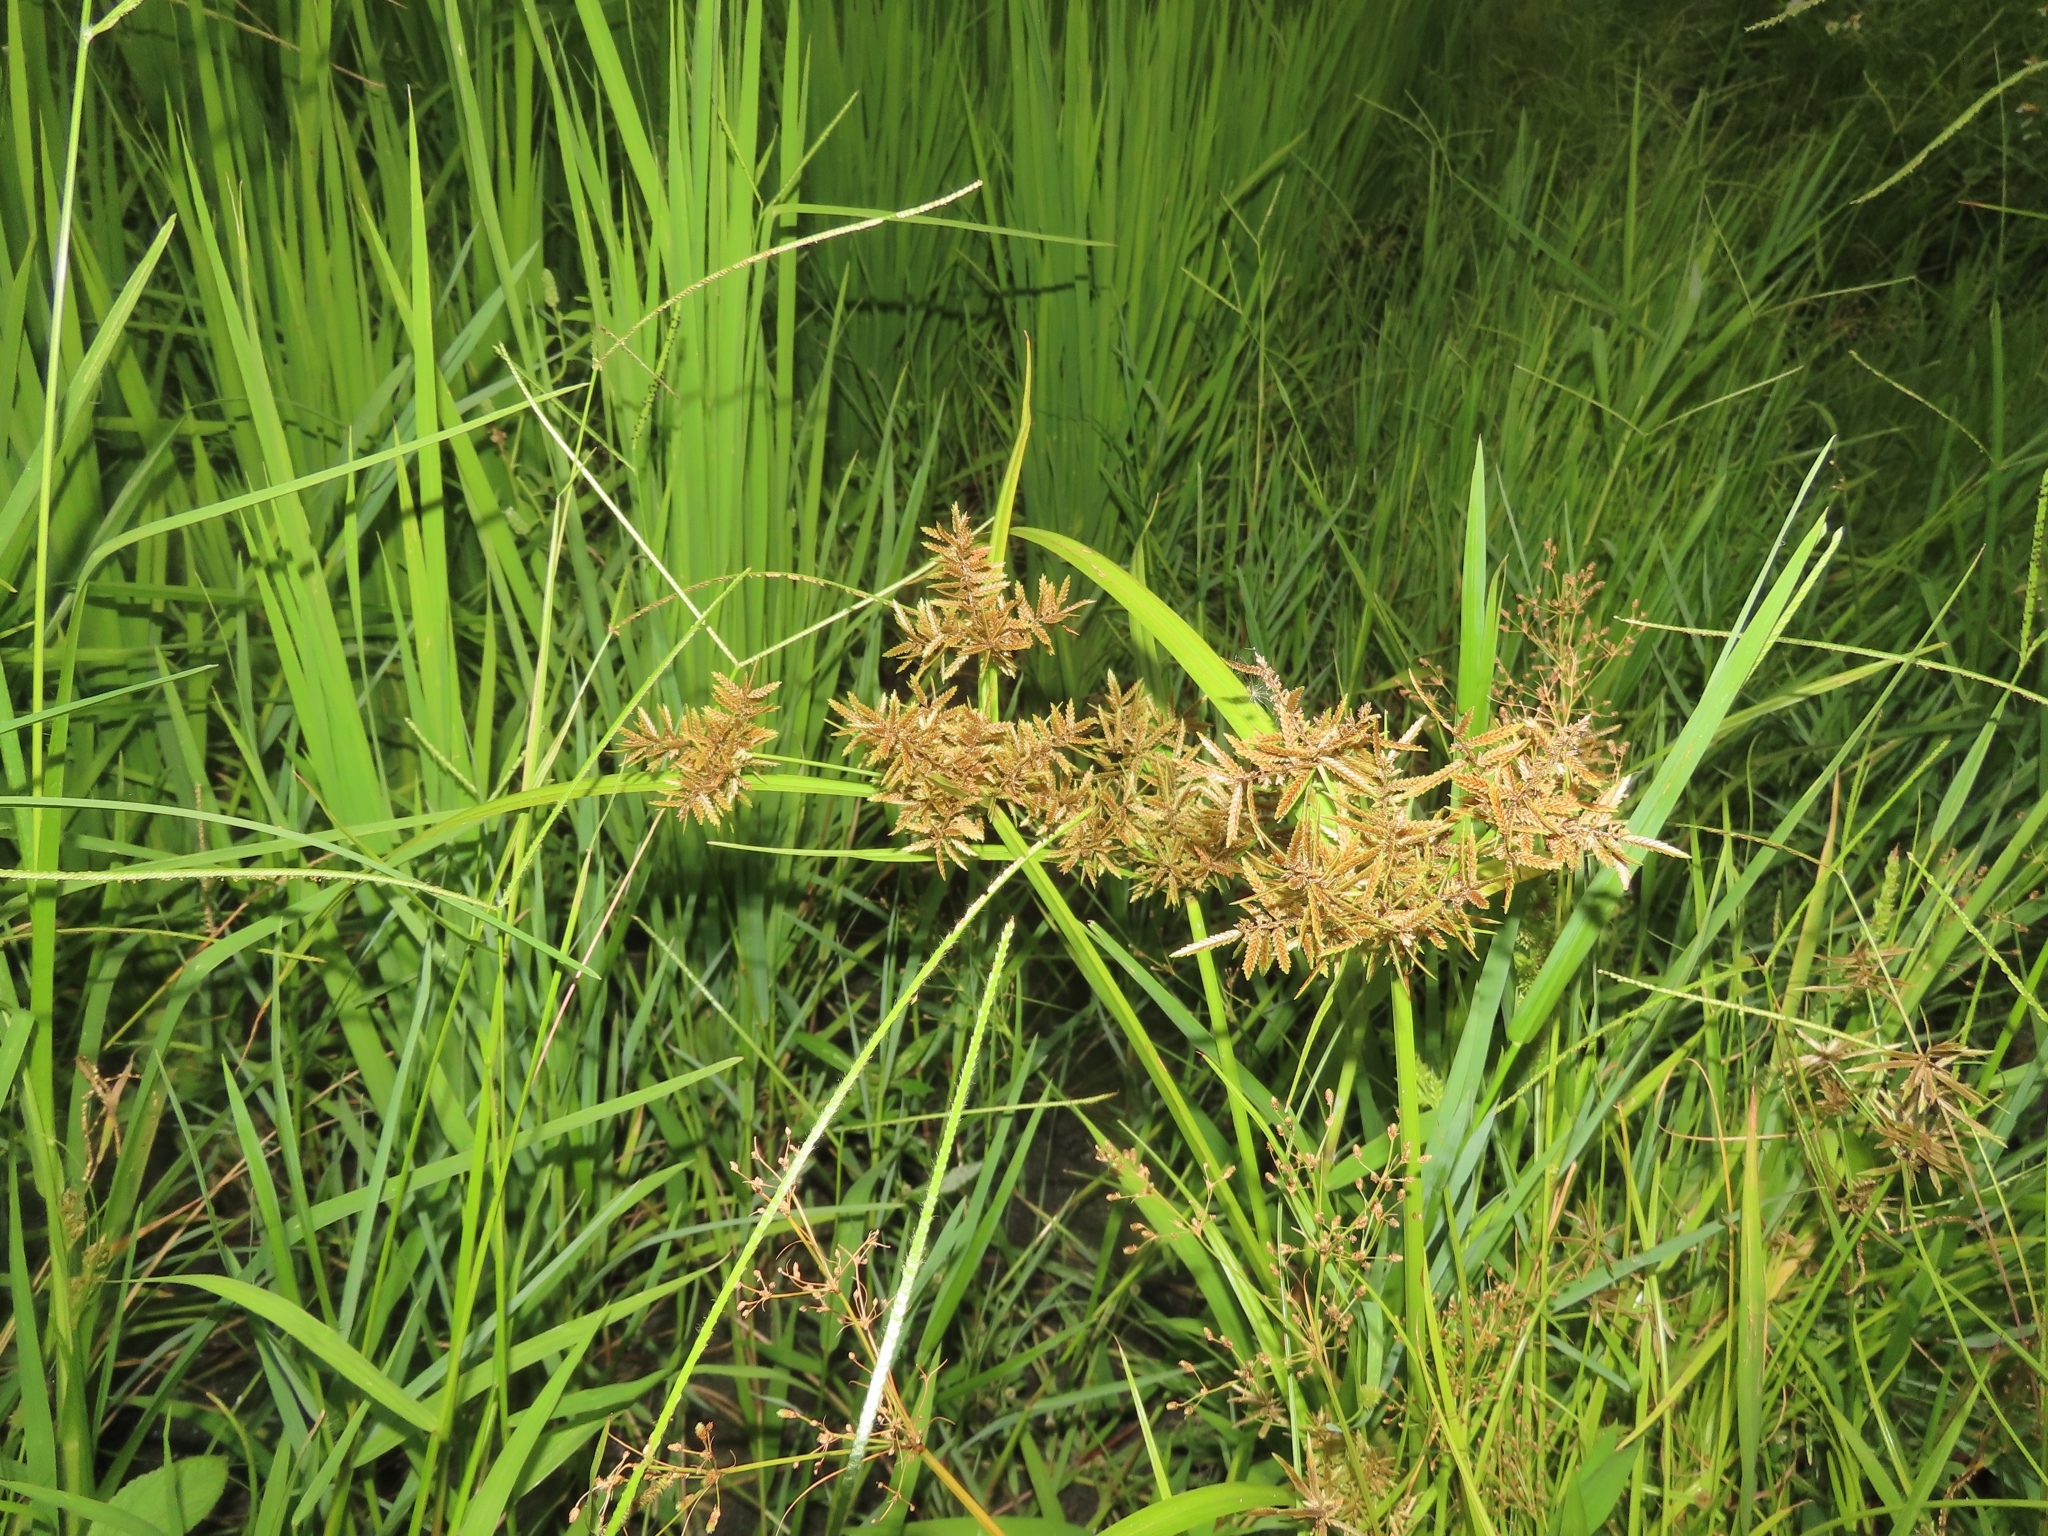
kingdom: Plantae
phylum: Tracheophyta
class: Liliopsida
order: Poales
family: Cyperaceae
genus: Cyperus
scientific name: Cyperus pilosus
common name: Fuzzy flatsedge
